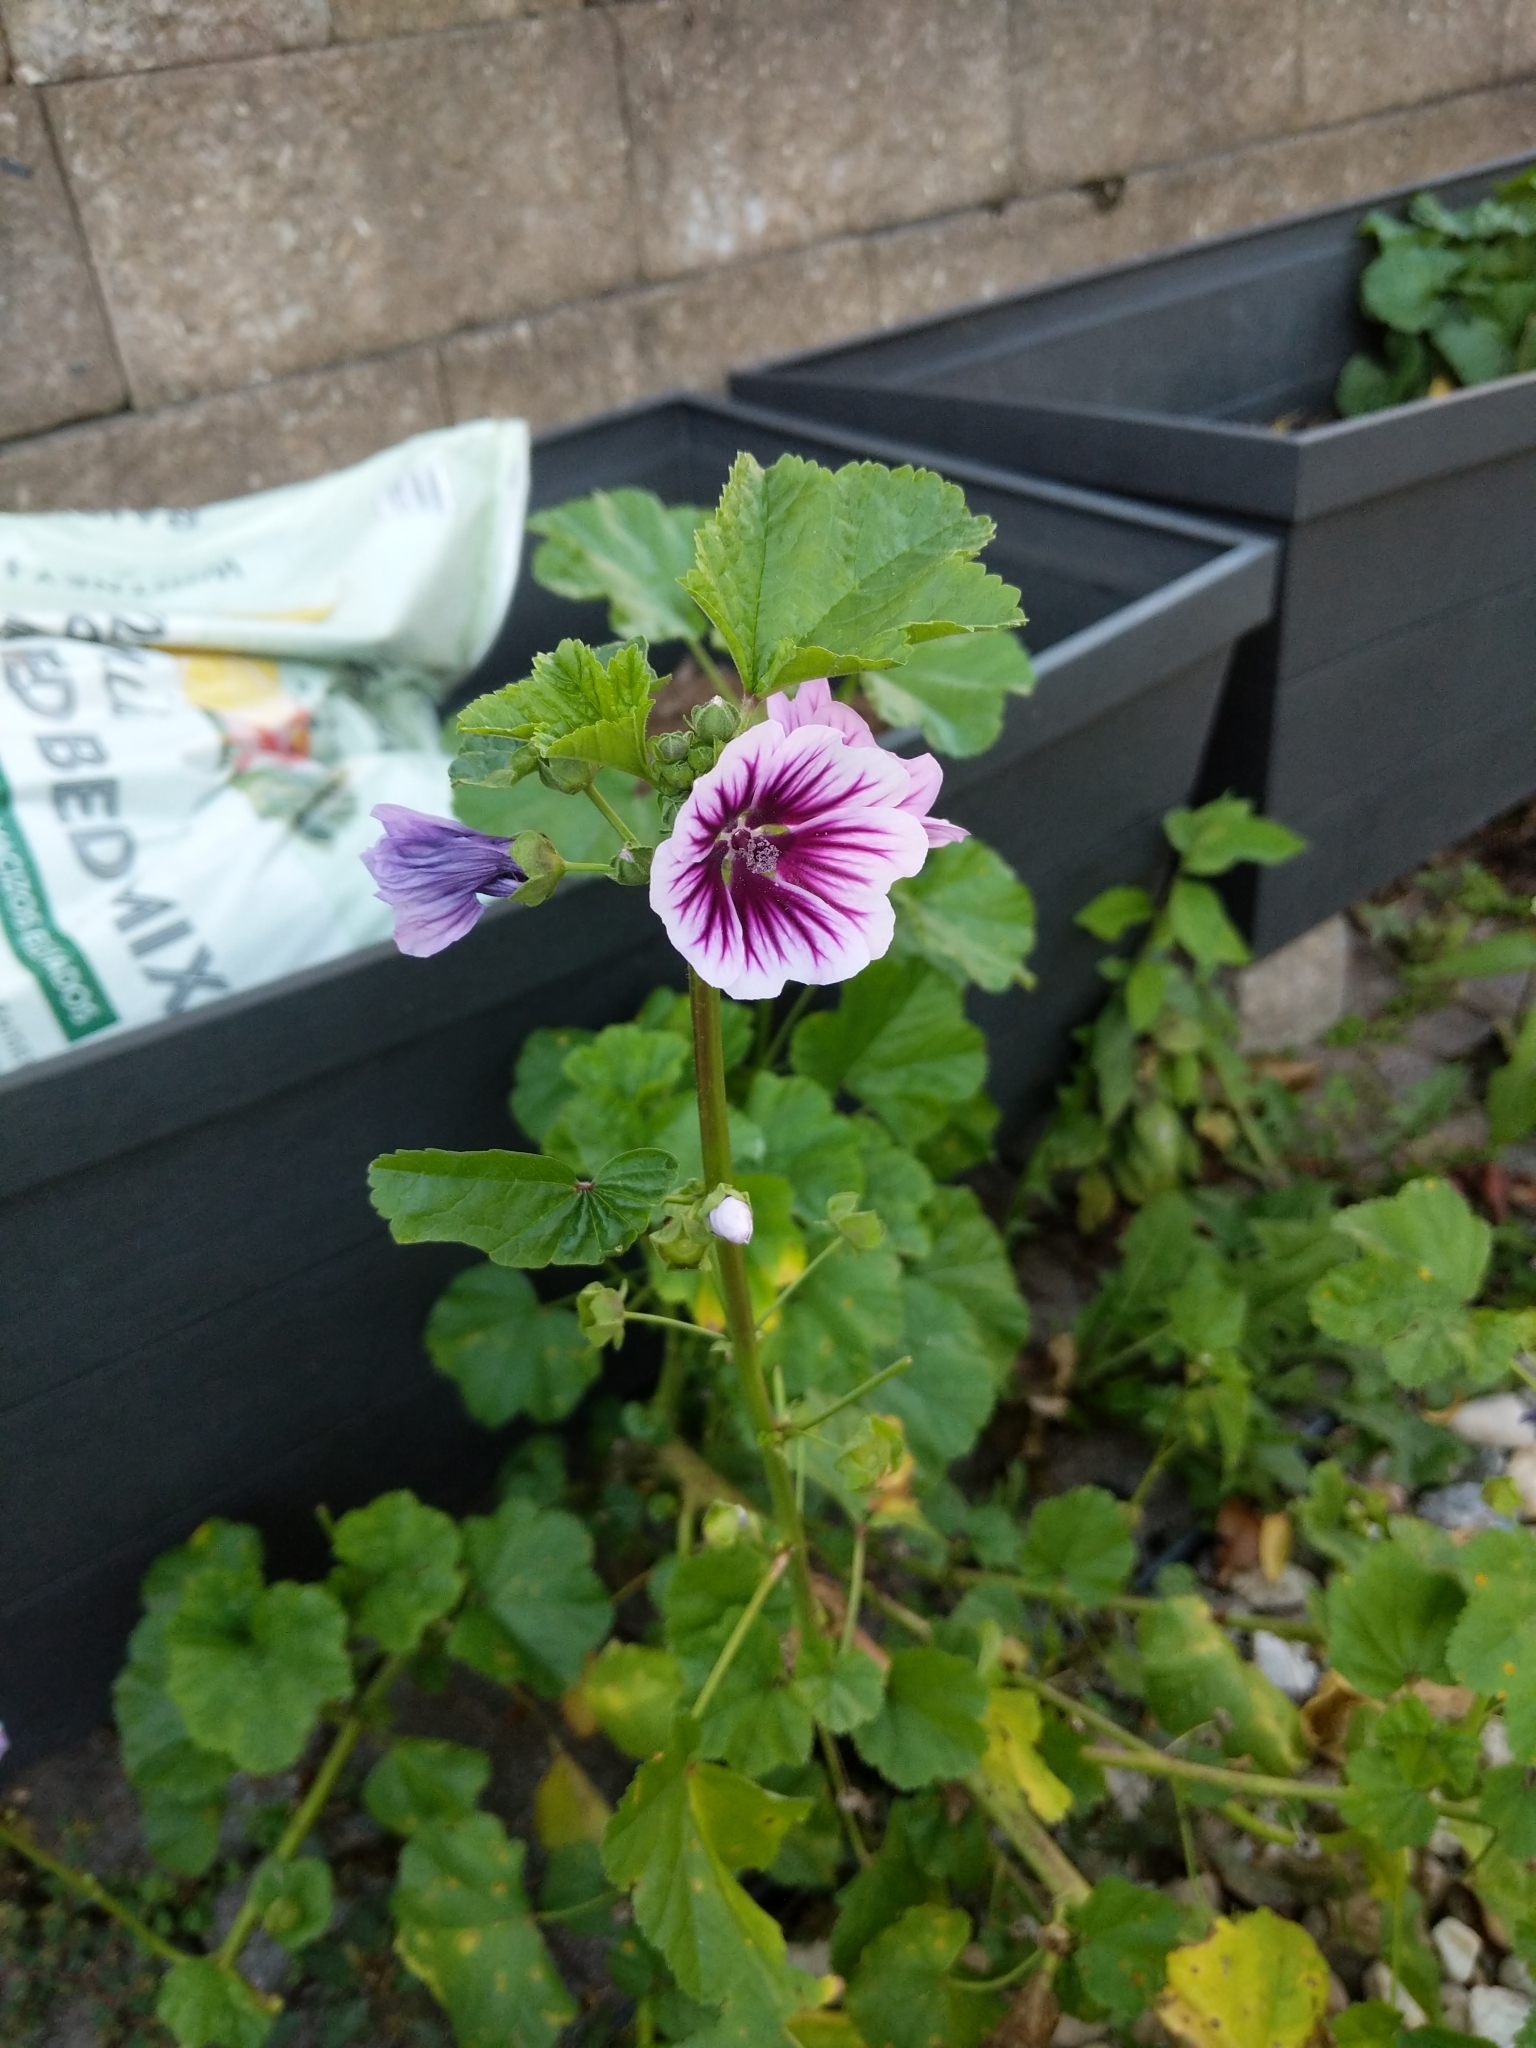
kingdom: Plantae
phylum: Tracheophyta
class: Magnoliopsida
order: Malvales
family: Malvaceae
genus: Malva
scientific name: Malva sylvestris
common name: Common mallow
